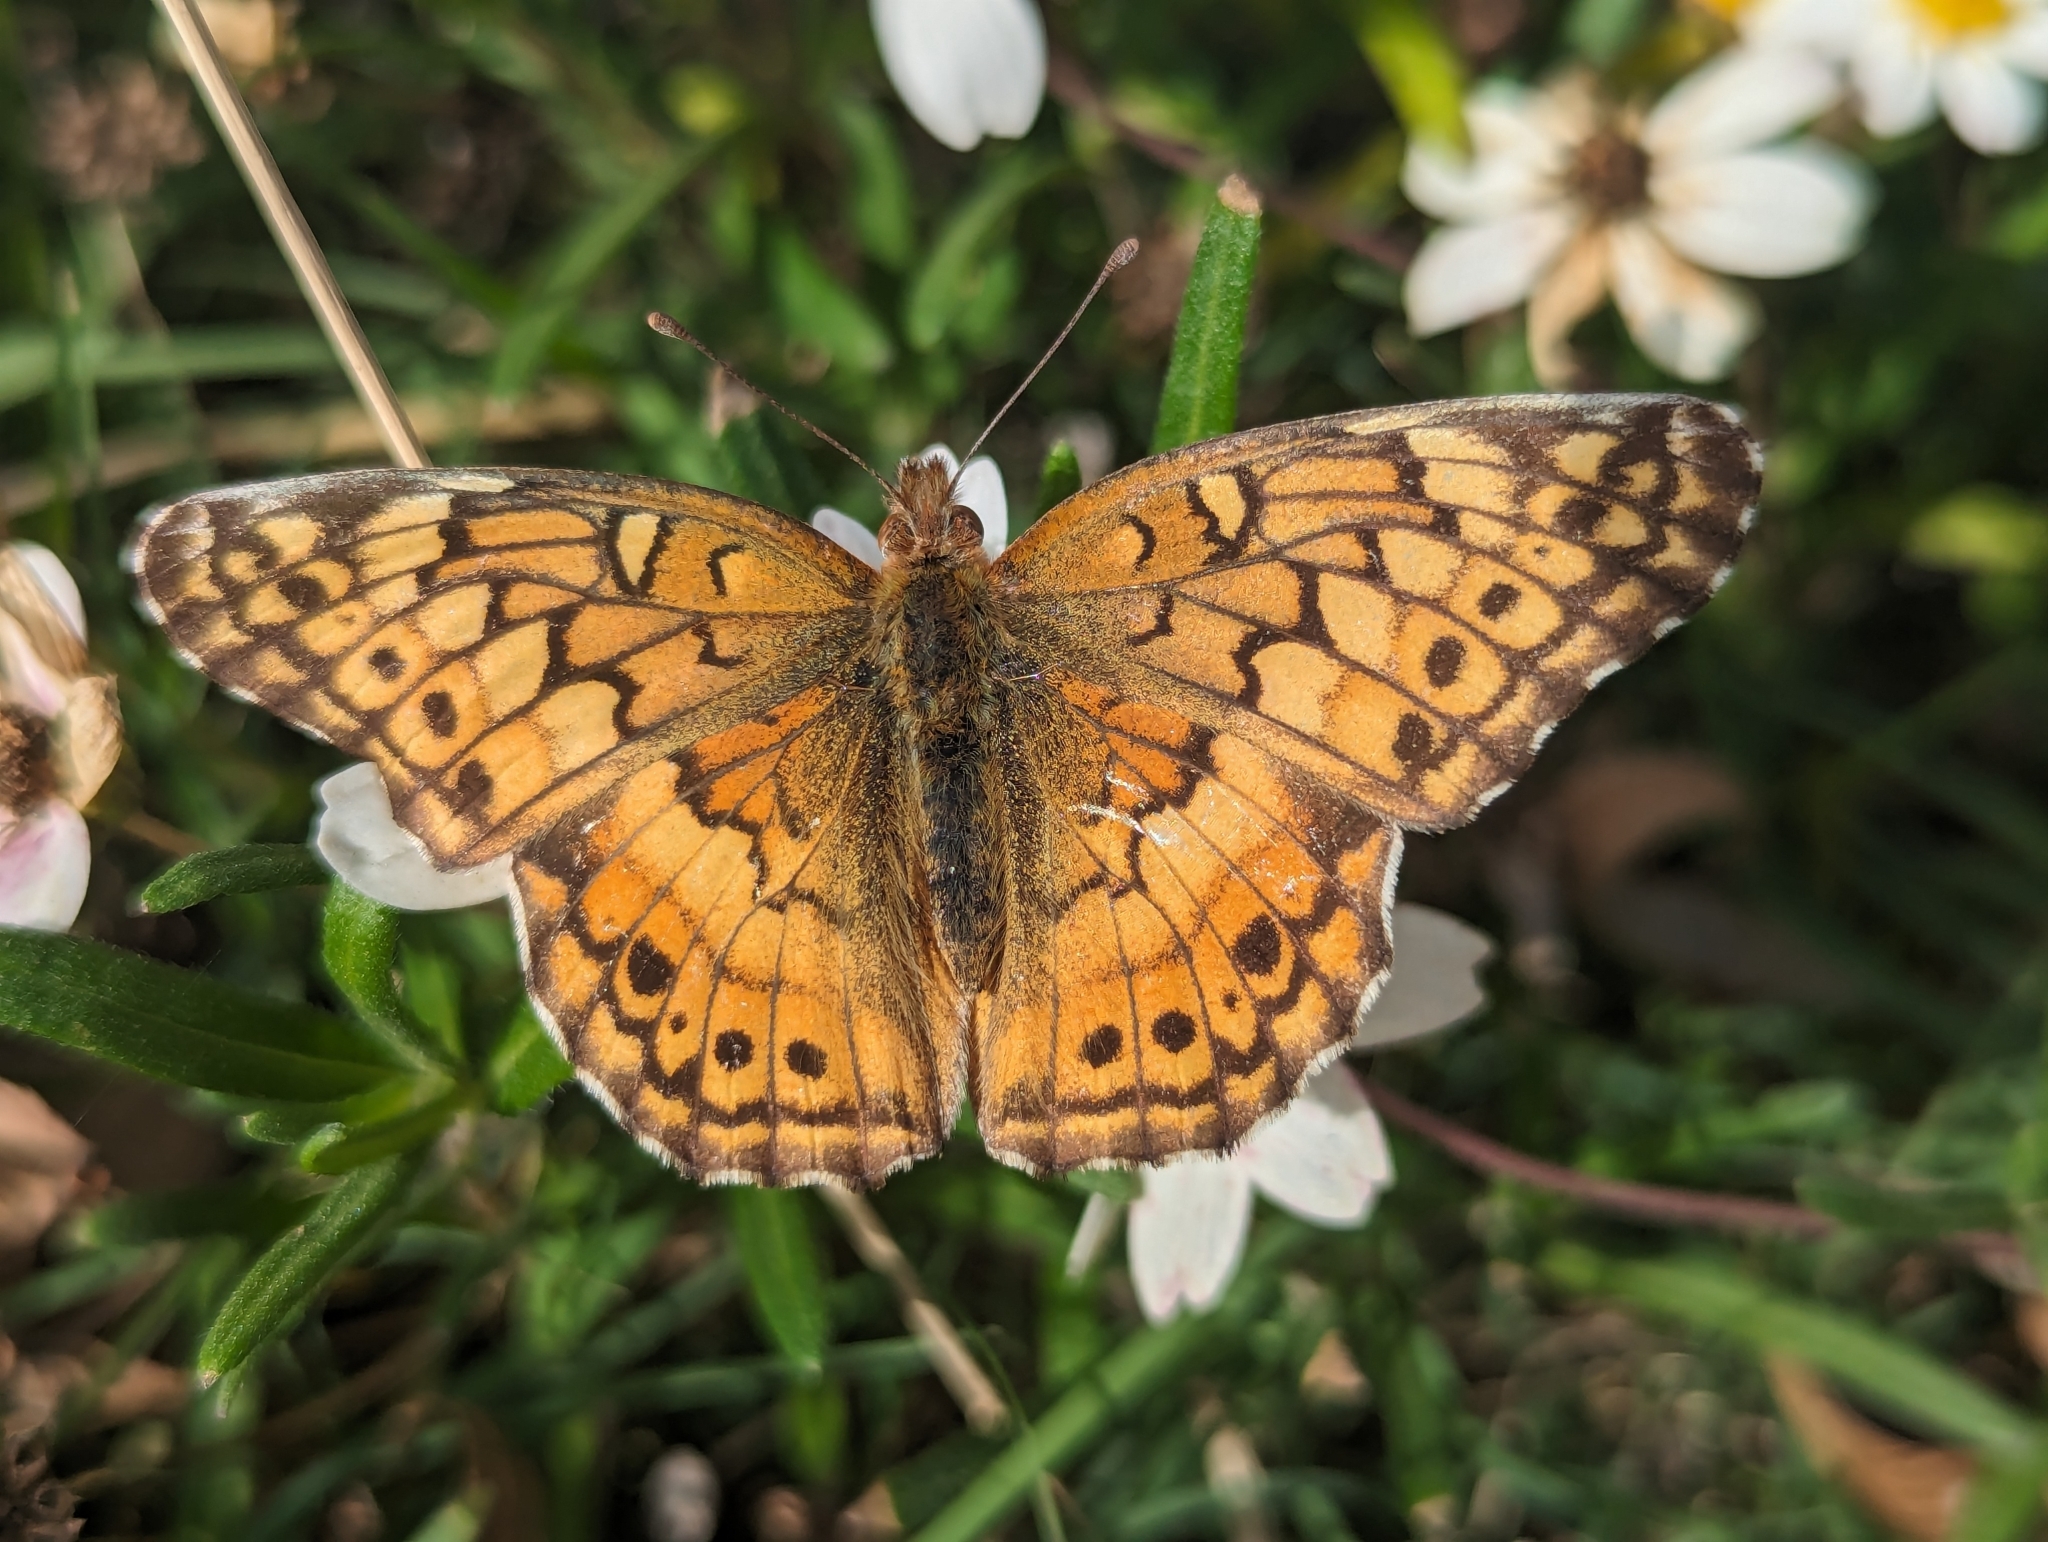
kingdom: Animalia
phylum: Arthropoda
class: Insecta
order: Lepidoptera
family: Nymphalidae
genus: Euptoieta
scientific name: Euptoieta claudia
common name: Variegated fritillary
